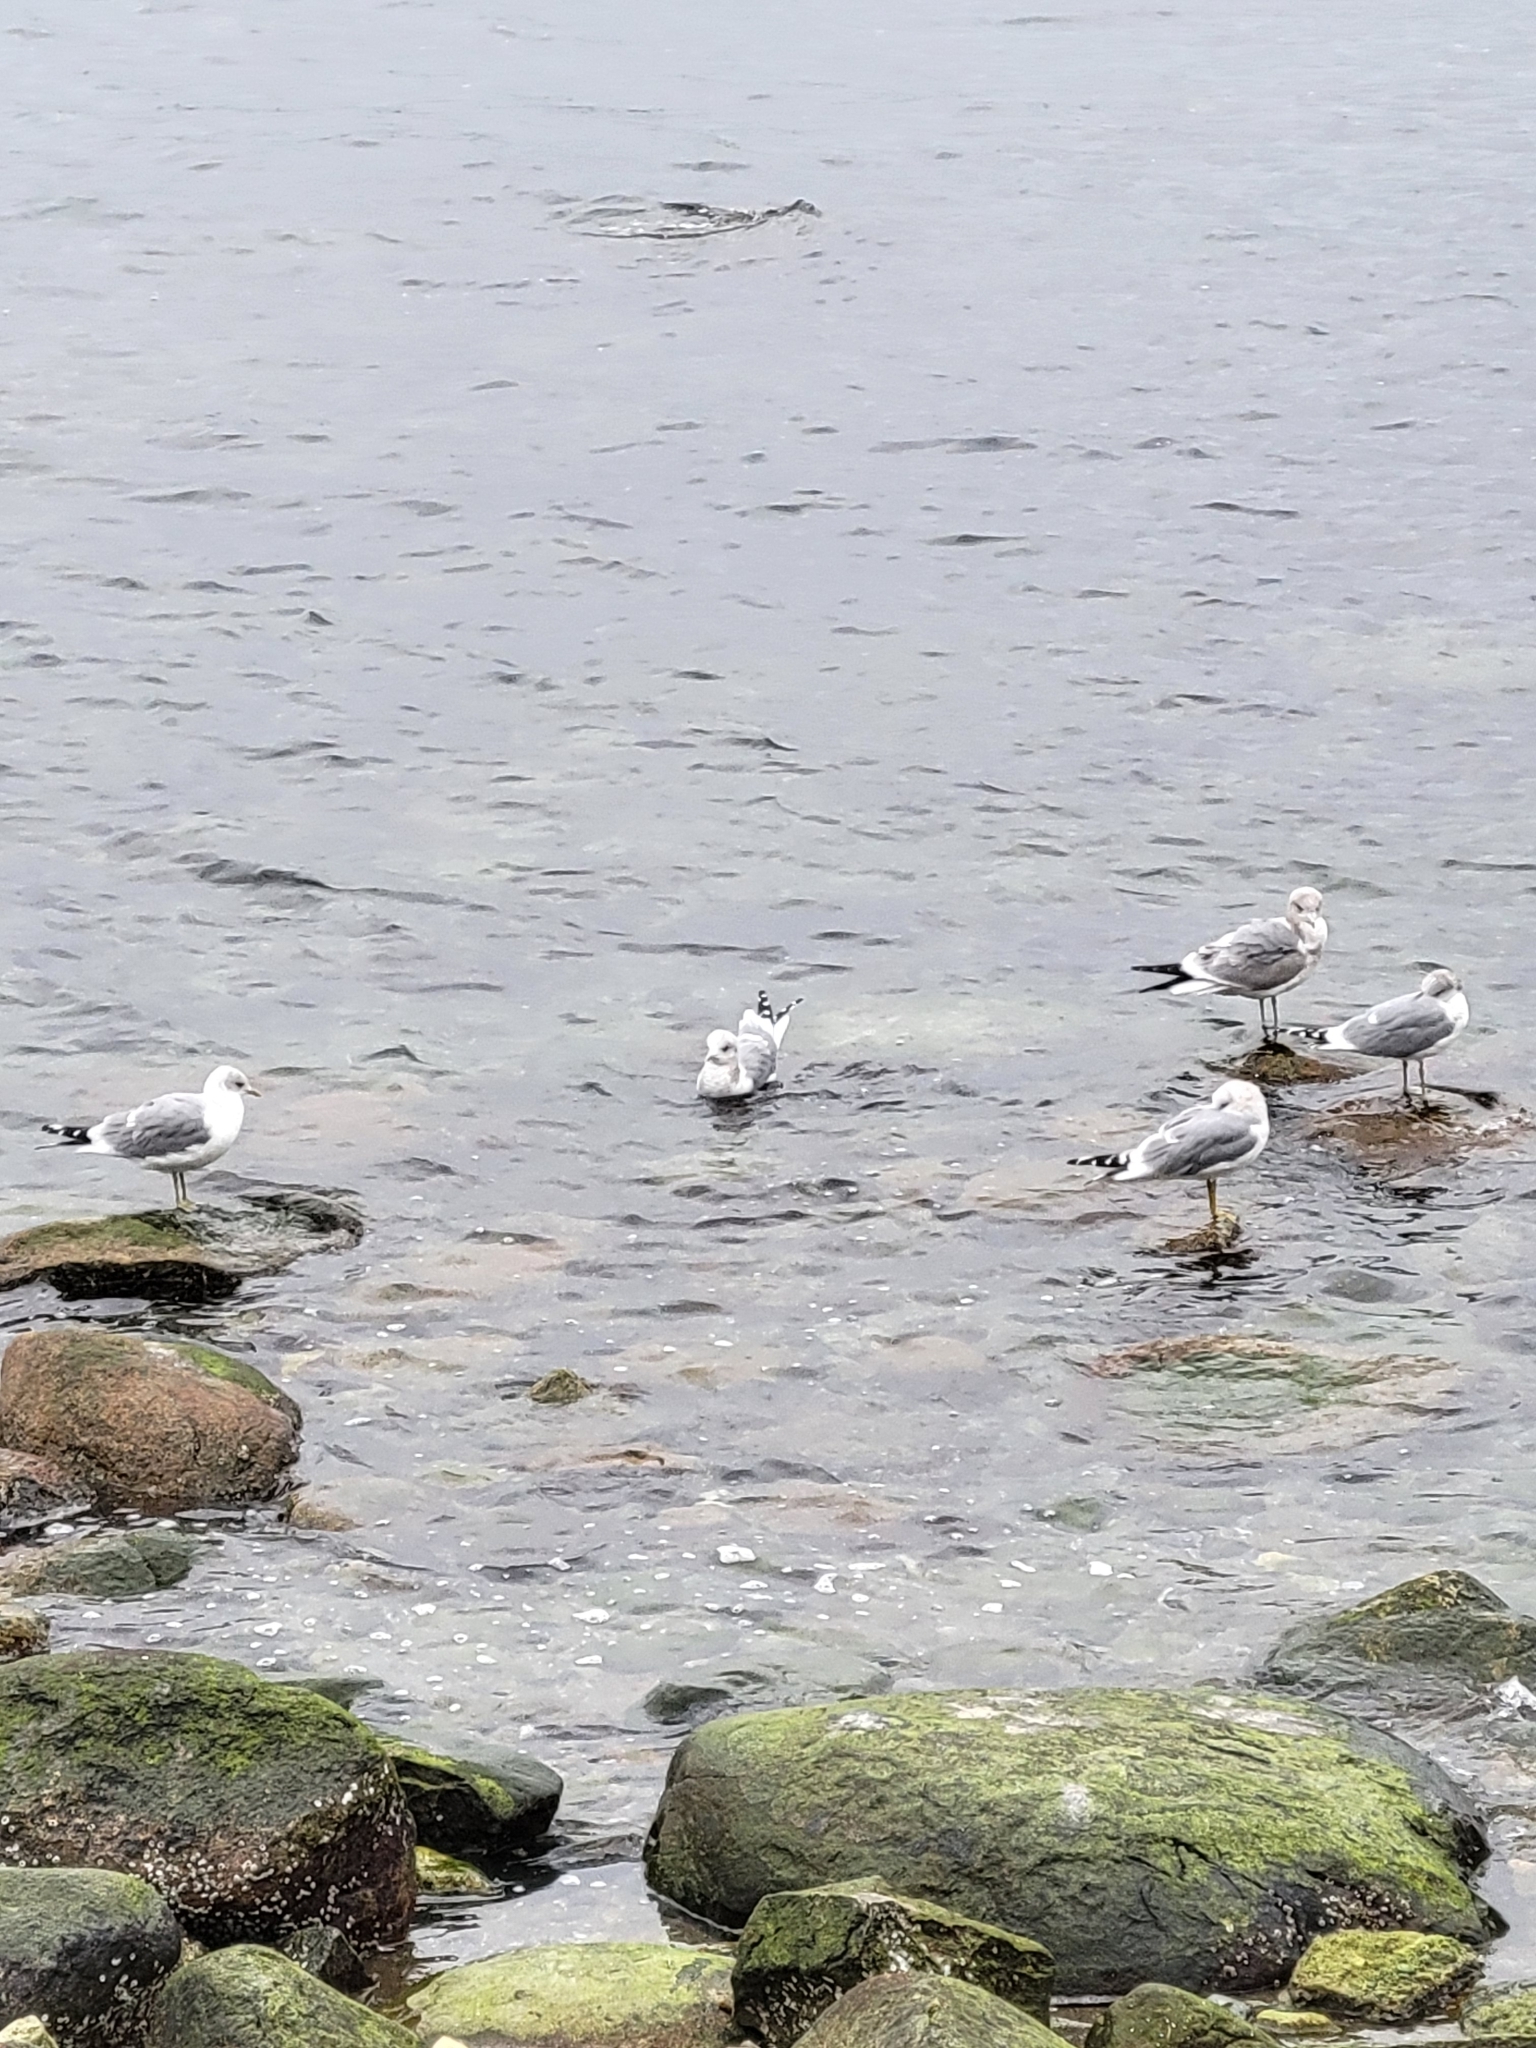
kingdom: Animalia
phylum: Chordata
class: Aves
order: Charadriiformes
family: Laridae
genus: Larus
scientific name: Larus brachyrhynchus
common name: Short-billed gull
